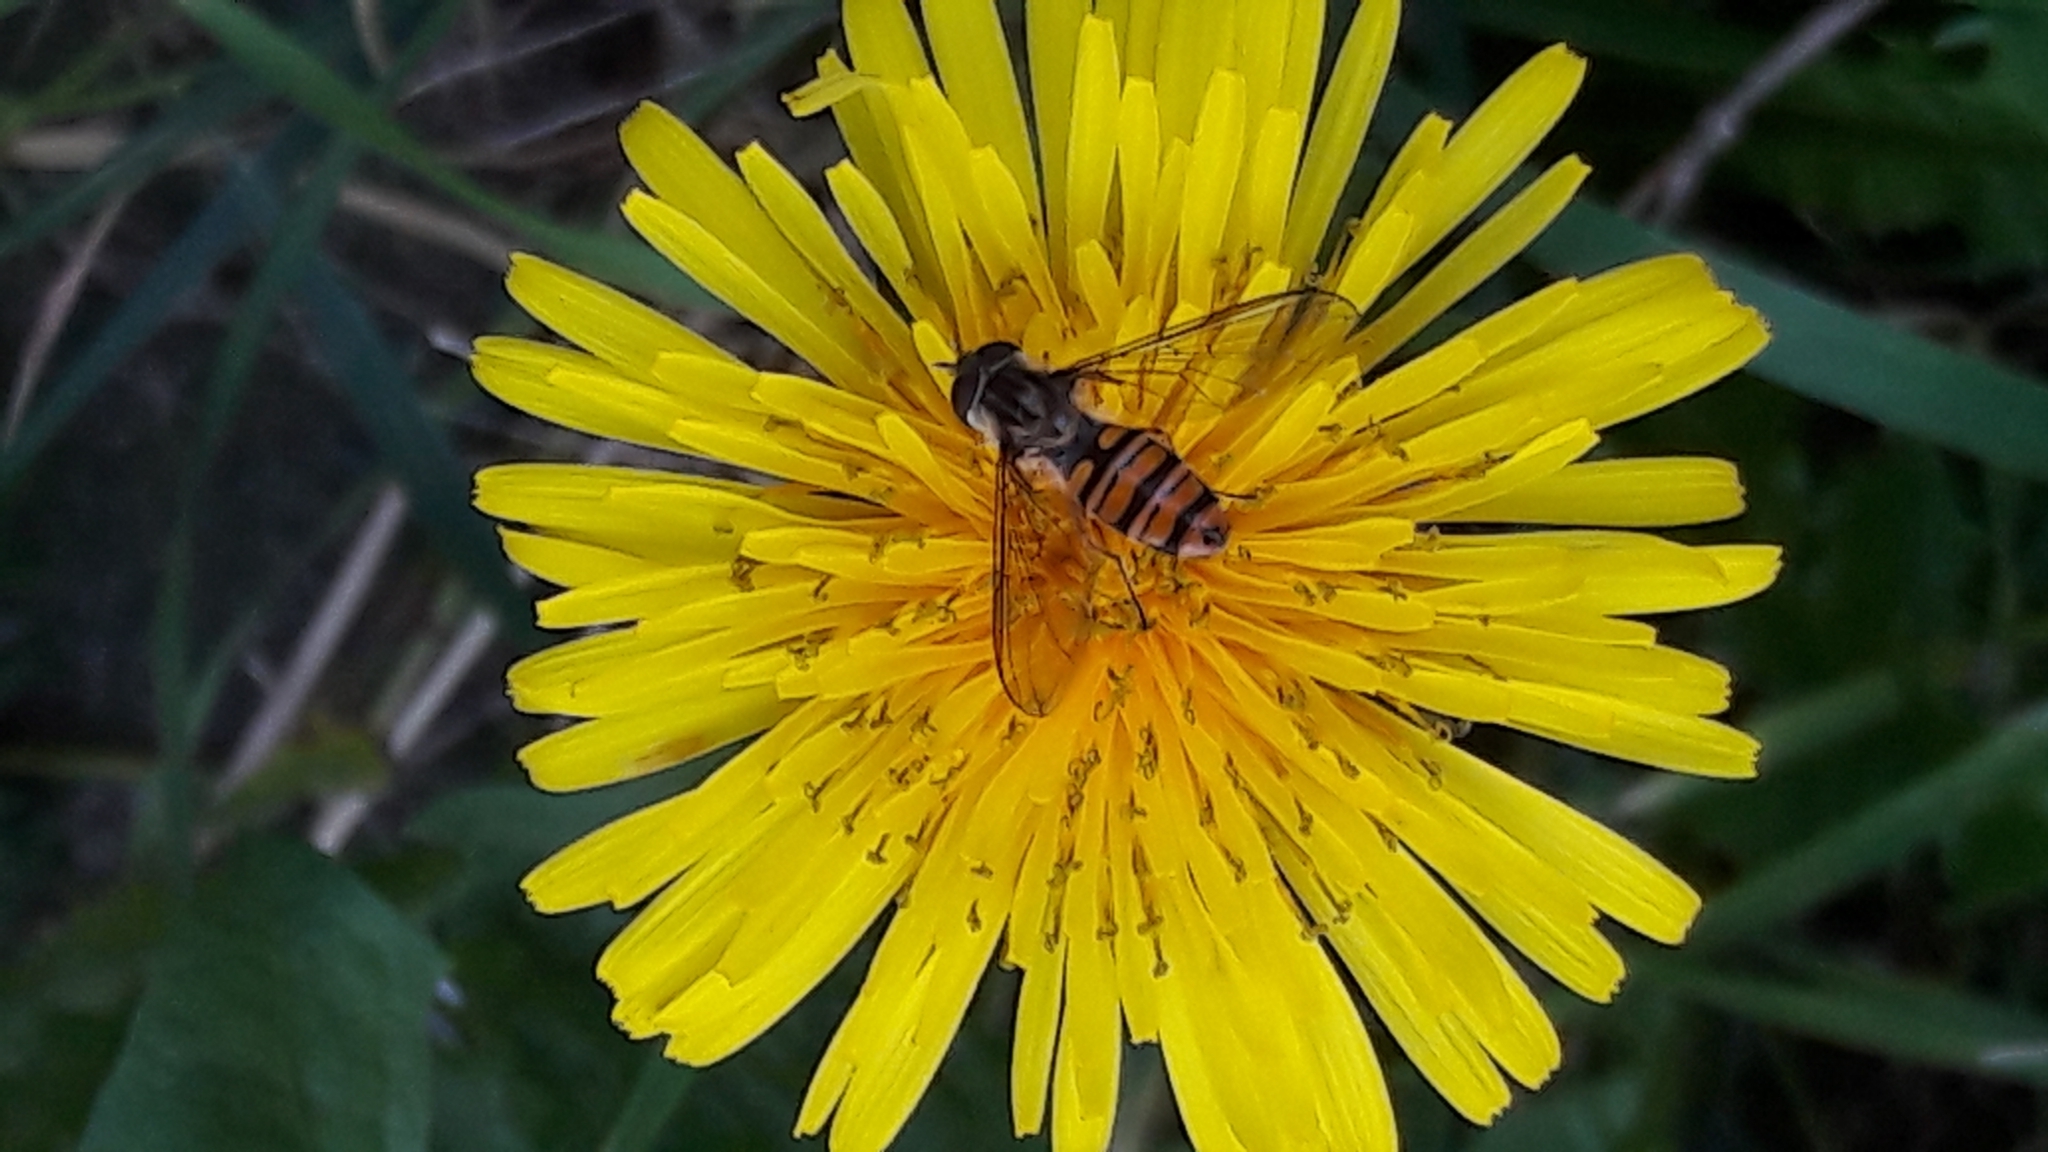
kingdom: Animalia
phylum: Arthropoda
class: Insecta
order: Diptera
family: Syrphidae
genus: Episyrphus
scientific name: Episyrphus balteatus
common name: Marmalade hoverfly
